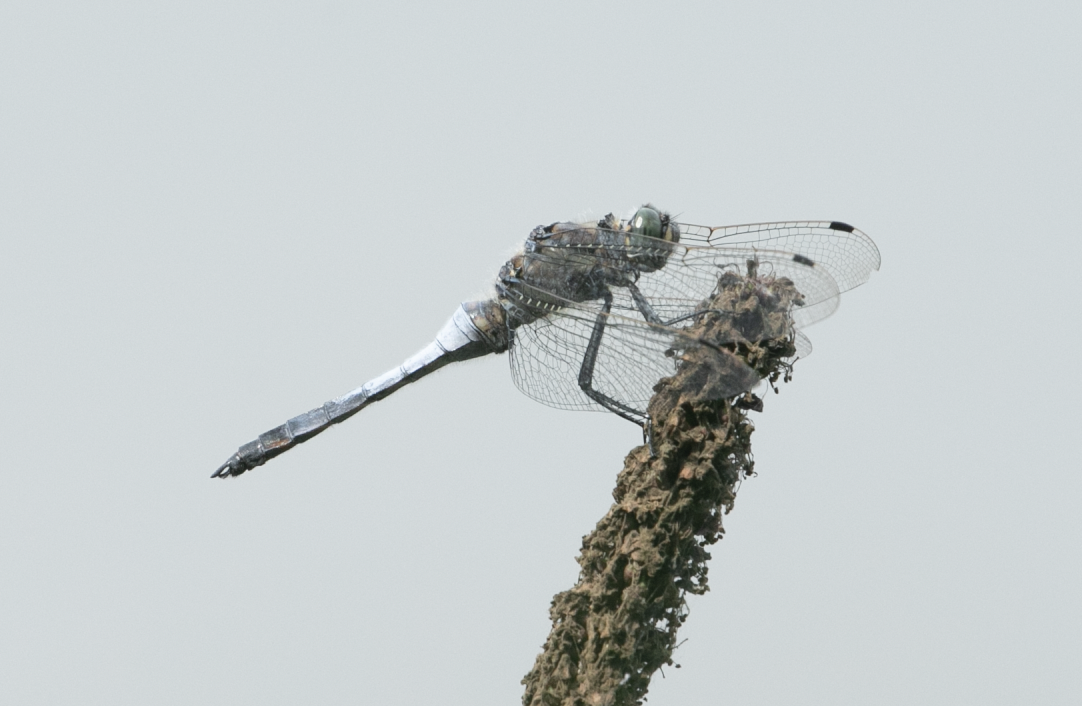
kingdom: Animalia
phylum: Arthropoda
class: Insecta
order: Odonata
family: Libellulidae
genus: Orthetrum
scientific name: Orthetrum cancellatum
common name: Black-tailed skimmer
